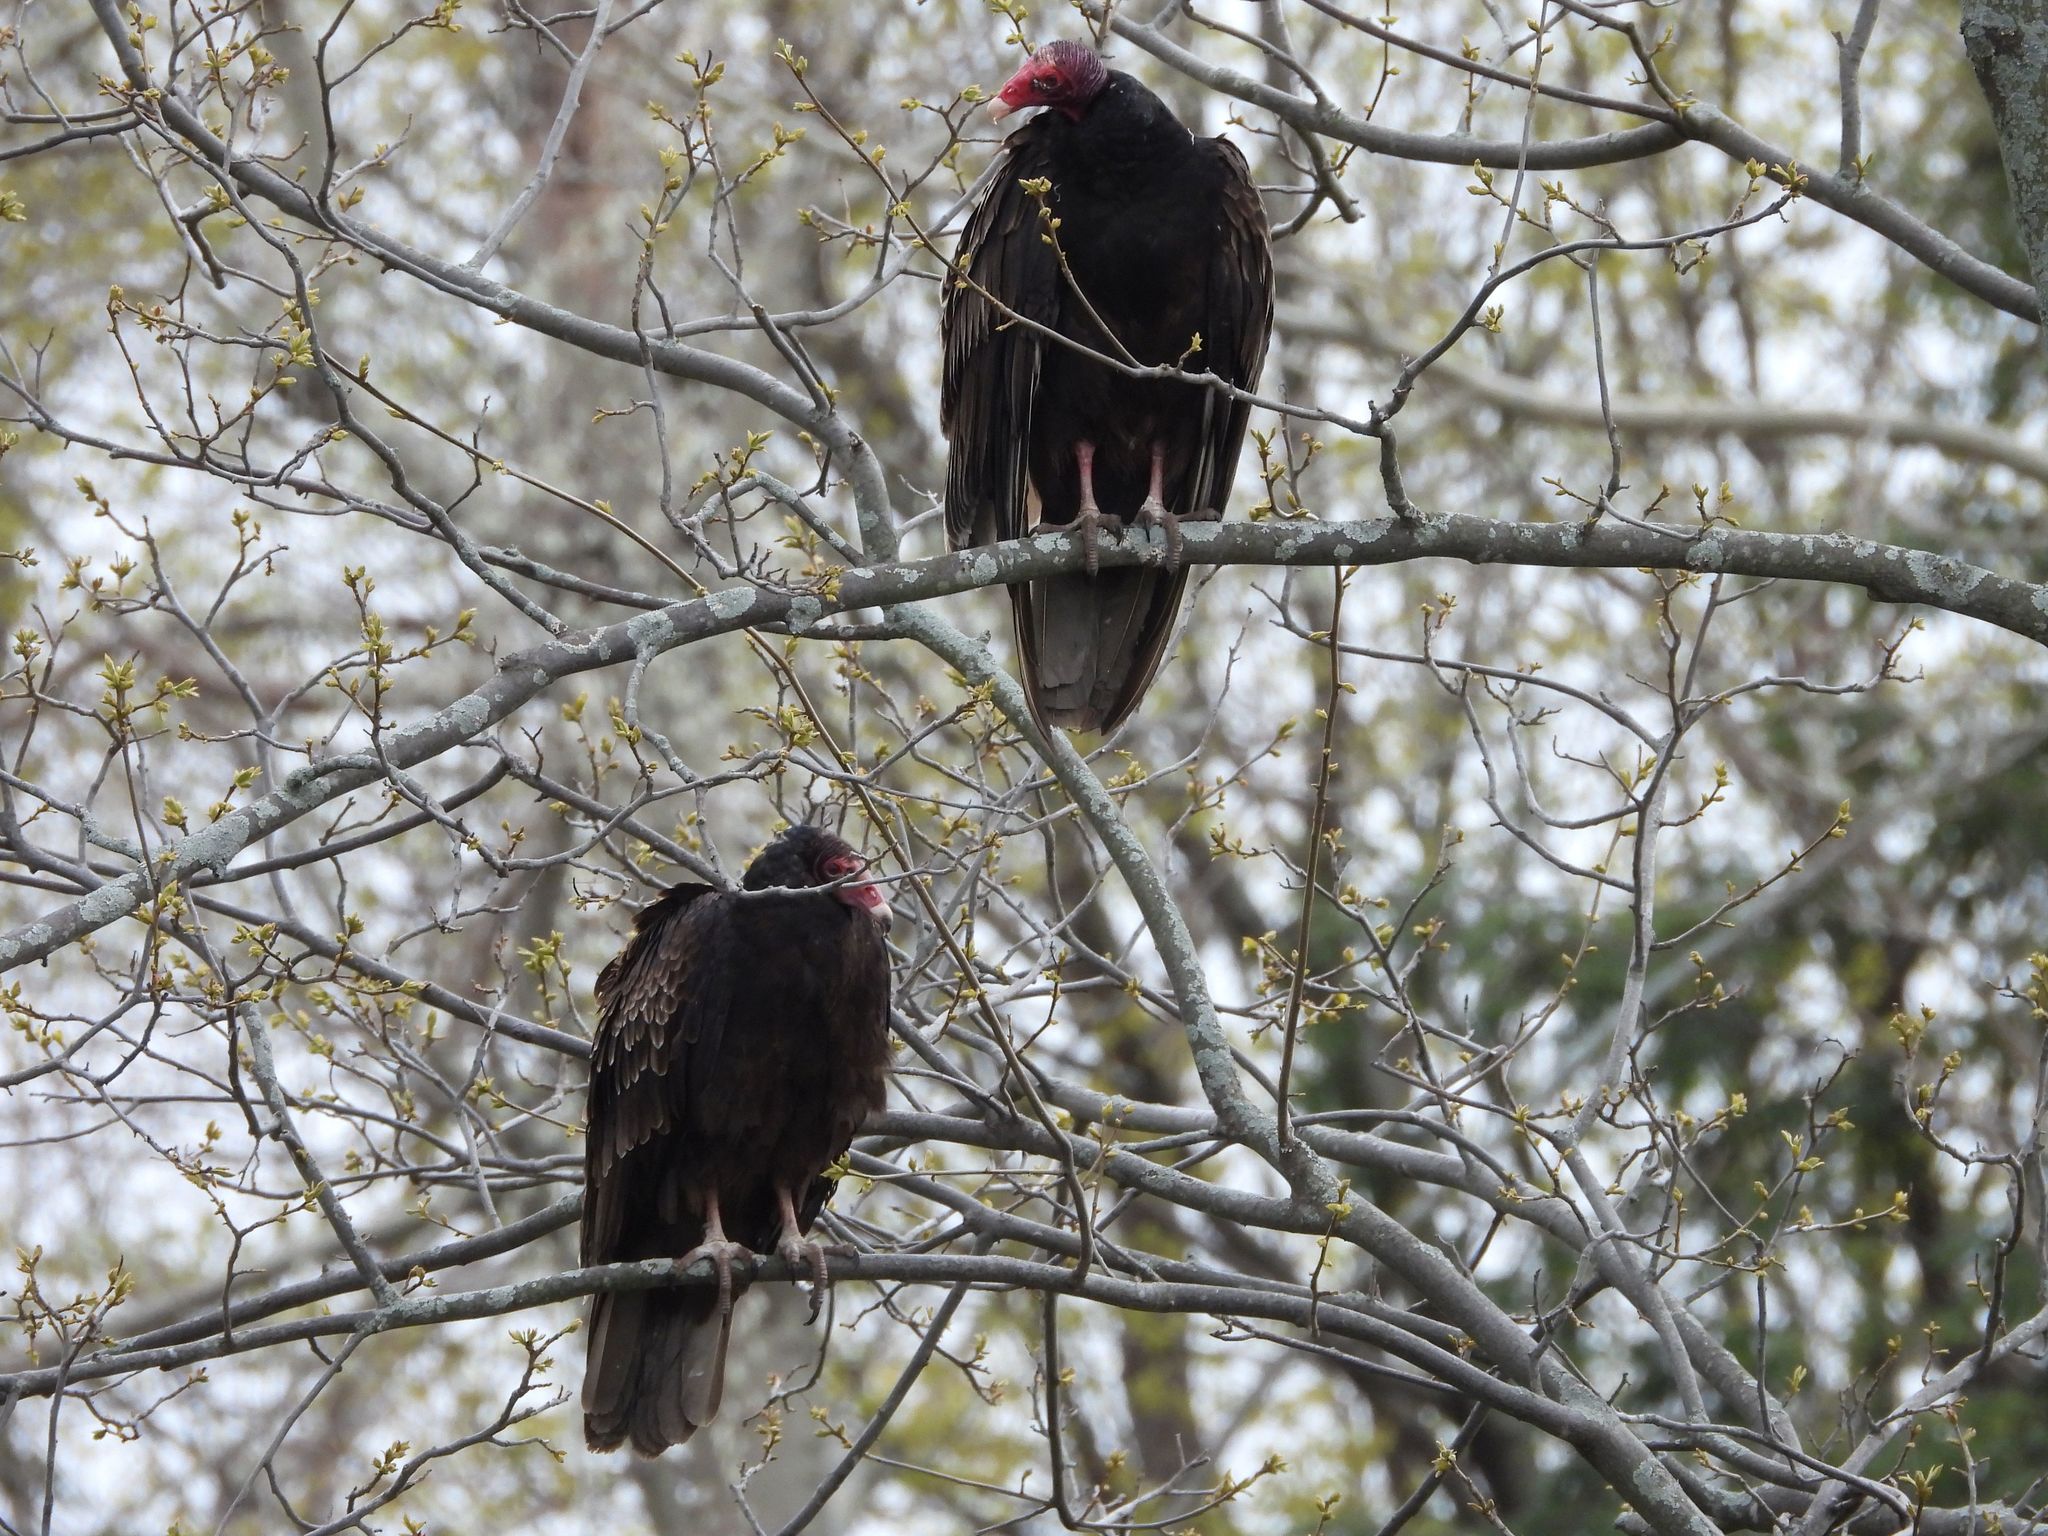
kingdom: Animalia
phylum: Chordata
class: Aves
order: Accipitriformes
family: Cathartidae
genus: Cathartes
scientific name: Cathartes aura
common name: Turkey vulture
